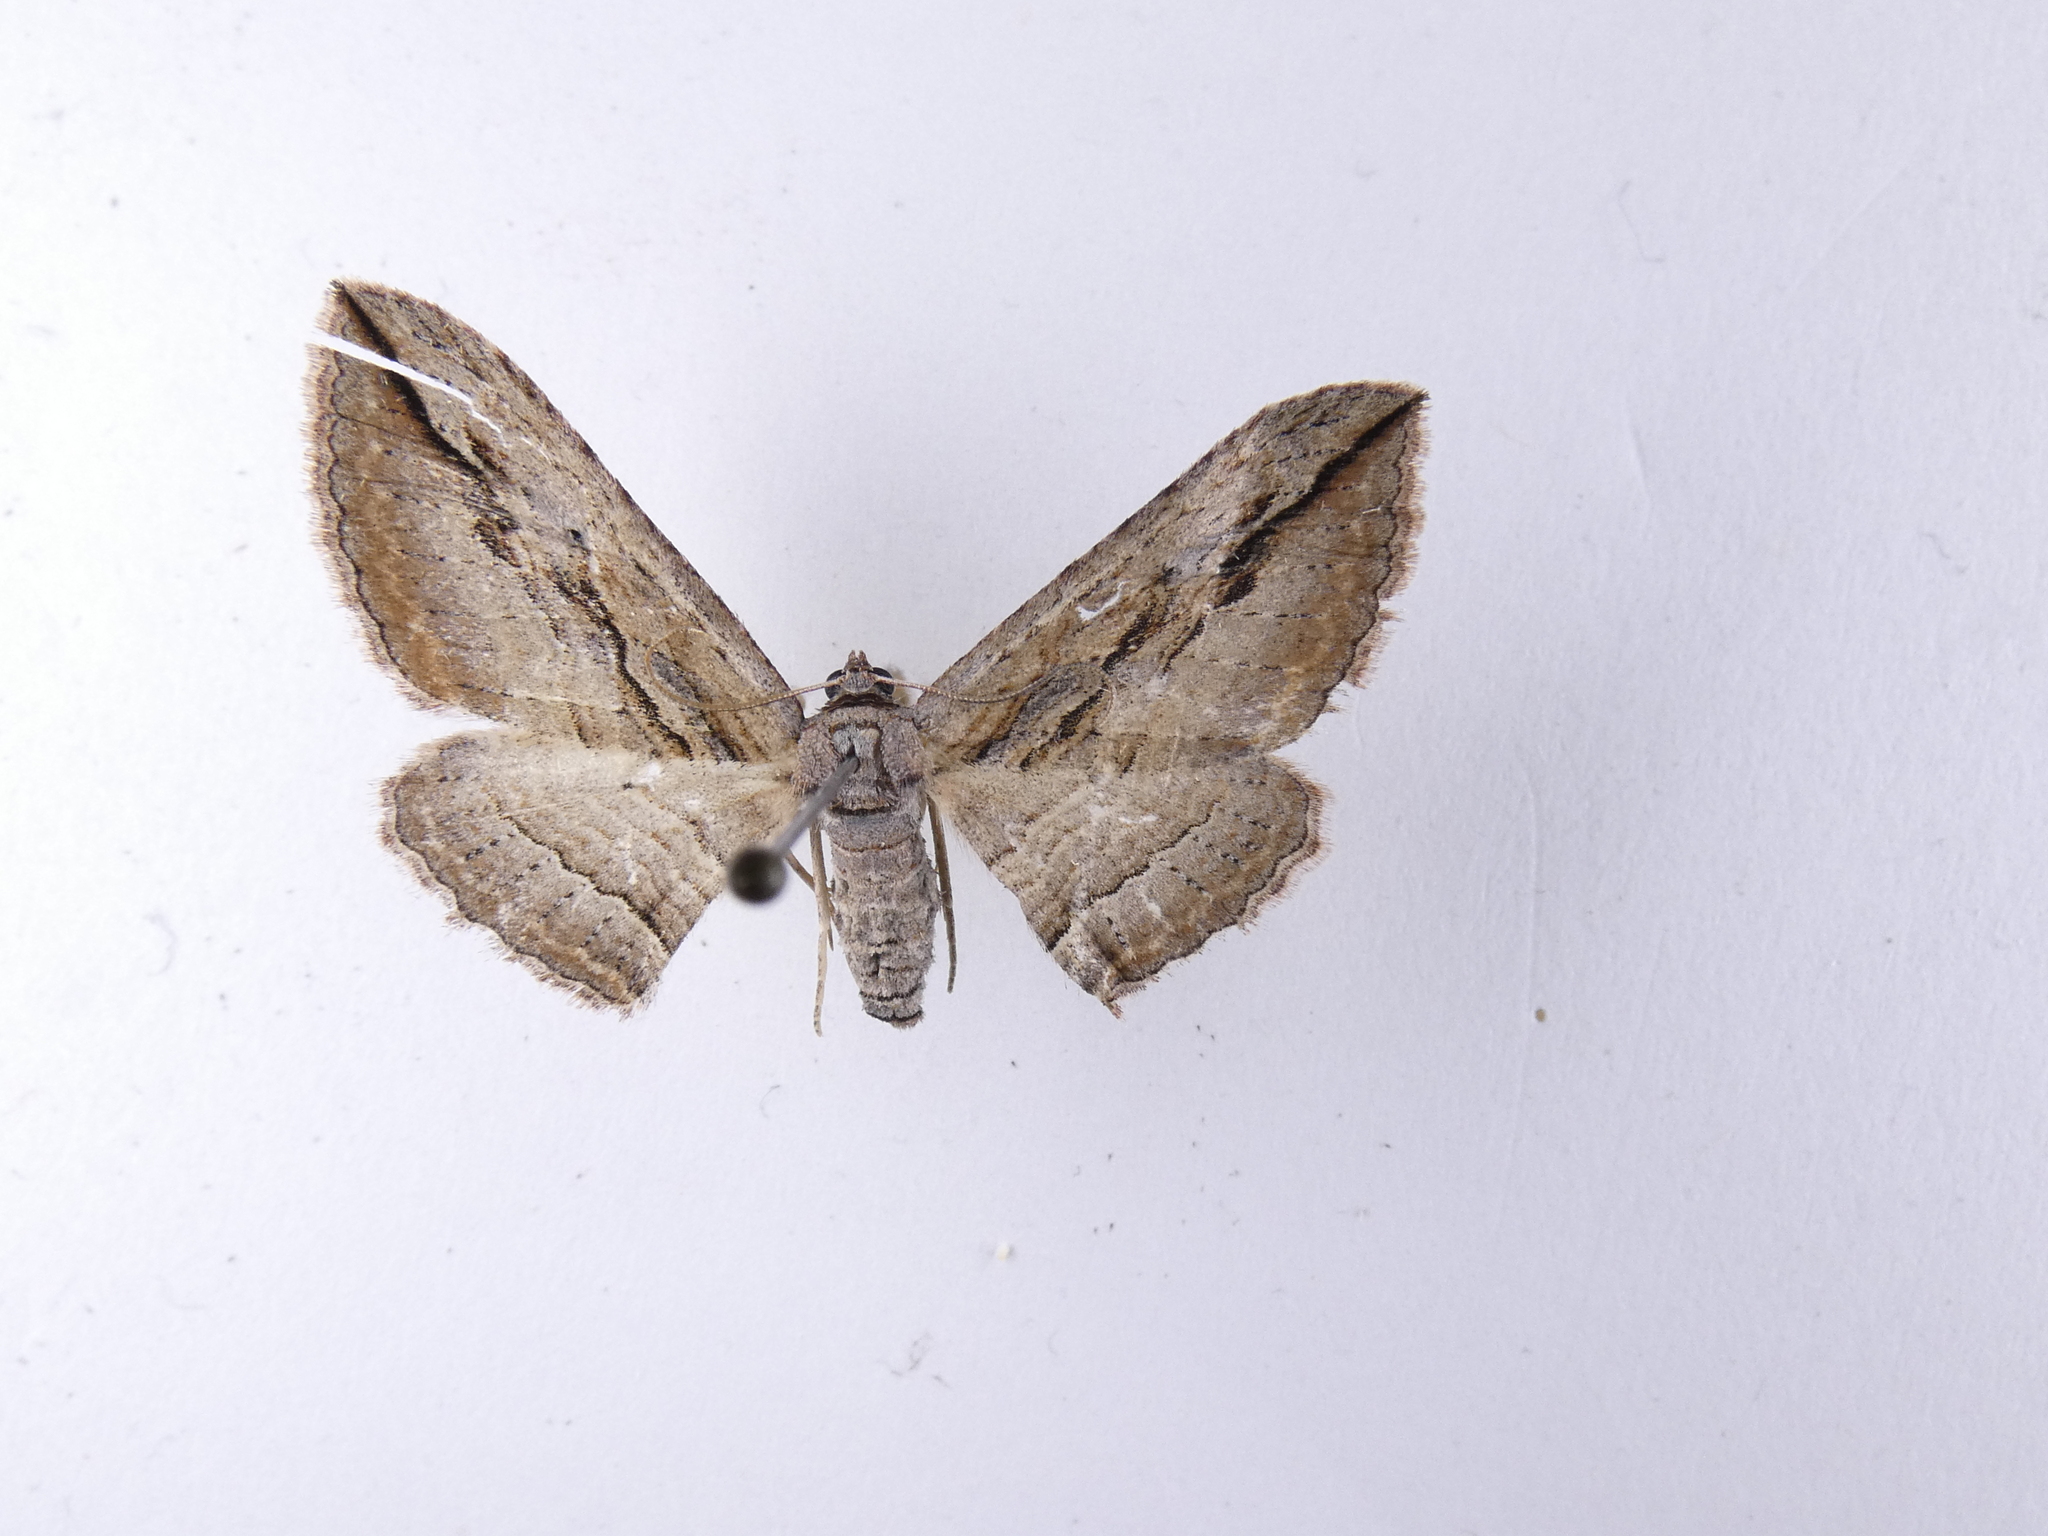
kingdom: Animalia
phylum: Arthropoda
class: Insecta
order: Lepidoptera
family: Geometridae
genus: Austrocidaria
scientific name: Austrocidaria gobiata
